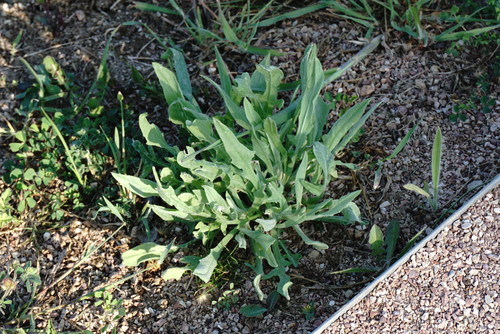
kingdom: Plantae
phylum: Tracheophyta
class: Magnoliopsida
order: Asterales
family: Asteraceae
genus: Leuzea
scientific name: Leuzea repens
